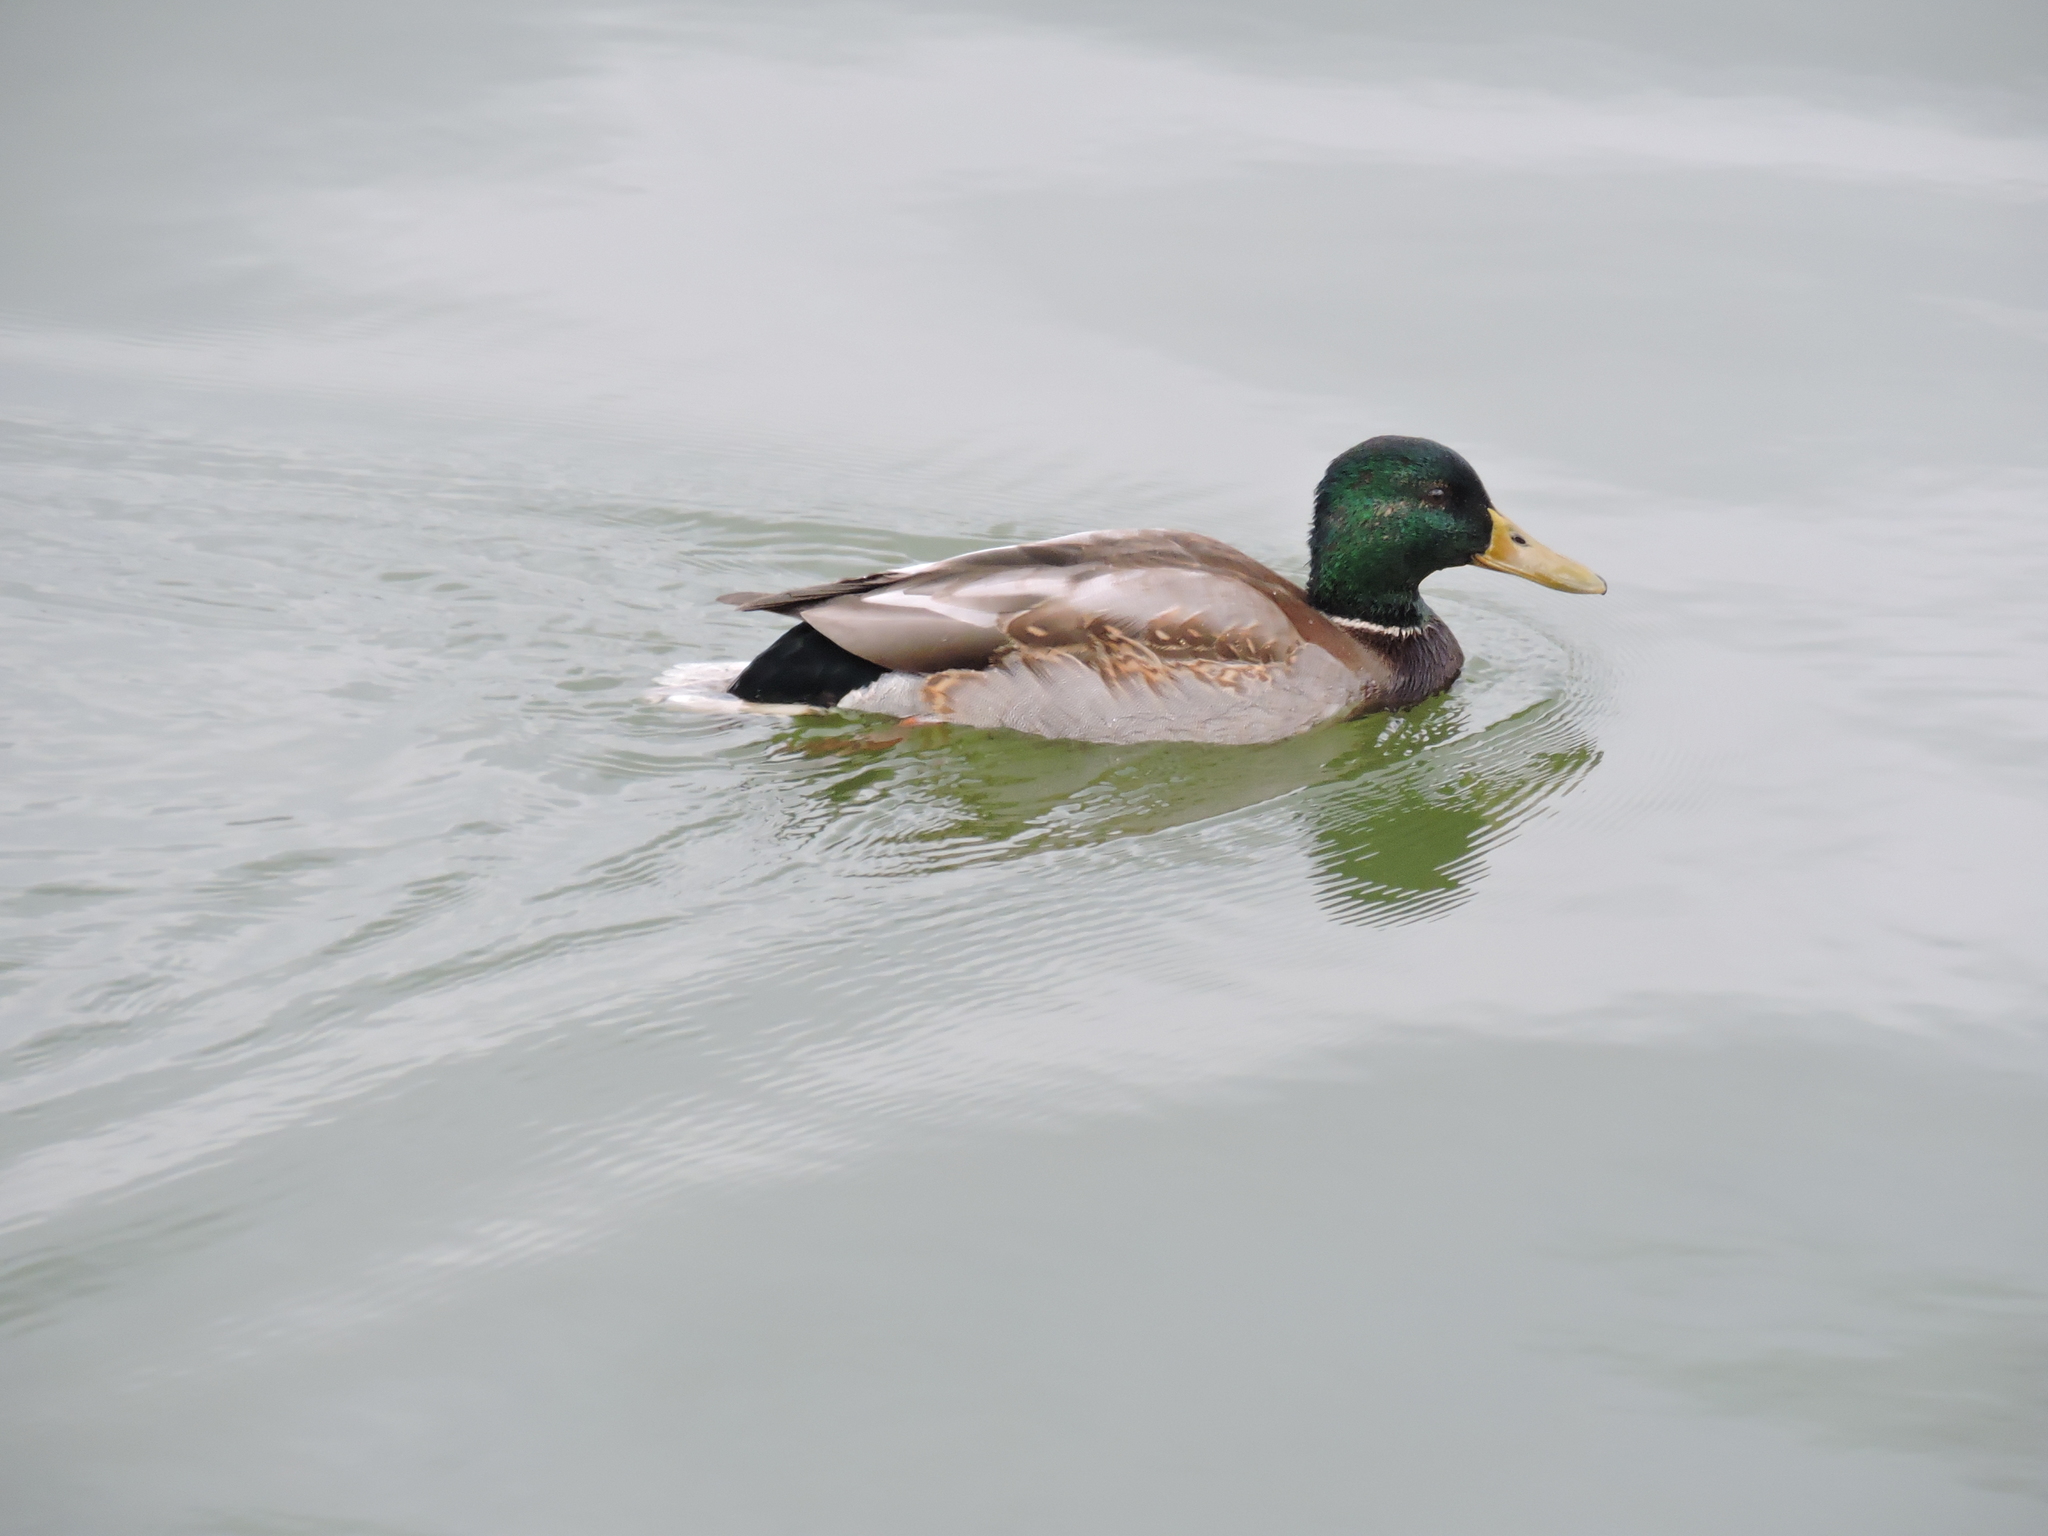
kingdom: Animalia
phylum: Chordata
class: Aves
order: Anseriformes
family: Anatidae
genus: Anas
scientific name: Anas platyrhynchos
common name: Mallard
